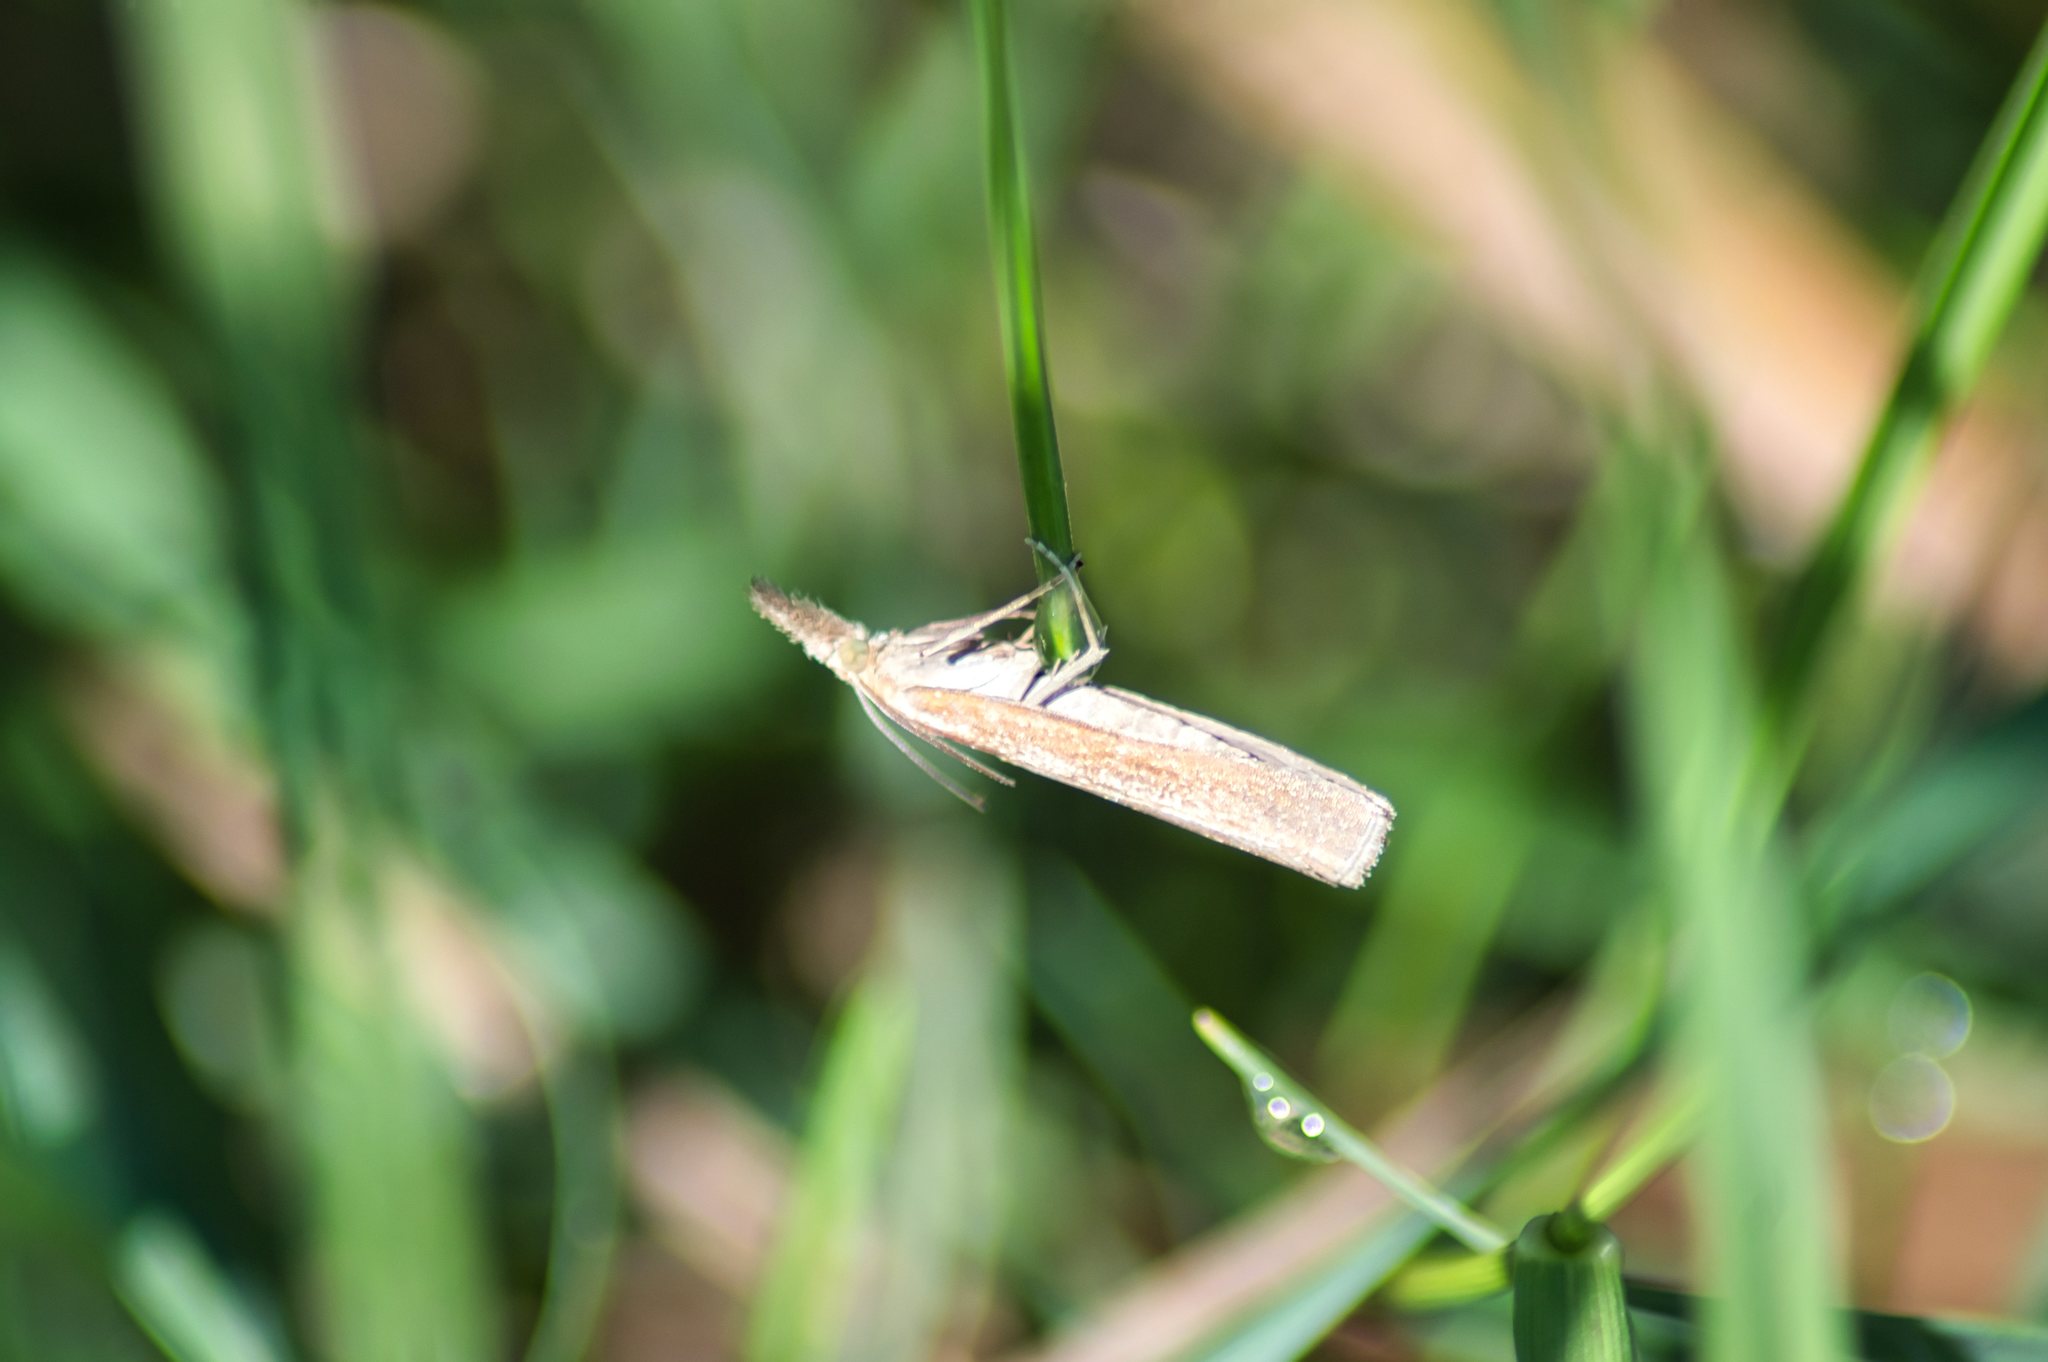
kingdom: Animalia
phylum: Arthropoda
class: Insecta
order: Lepidoptera
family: Crambidae
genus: Agriphila
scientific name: Agriphila tristellus
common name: Common grass-veneer
